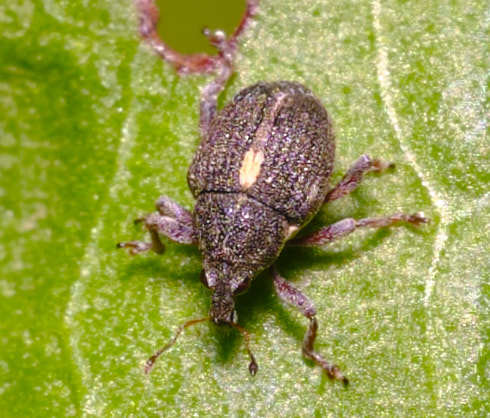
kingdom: Animalia
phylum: Arthropoda
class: Insecta
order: Coleoptera
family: Curculionidae
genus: Rhinoncus
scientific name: Rhinoncus leucostigma
